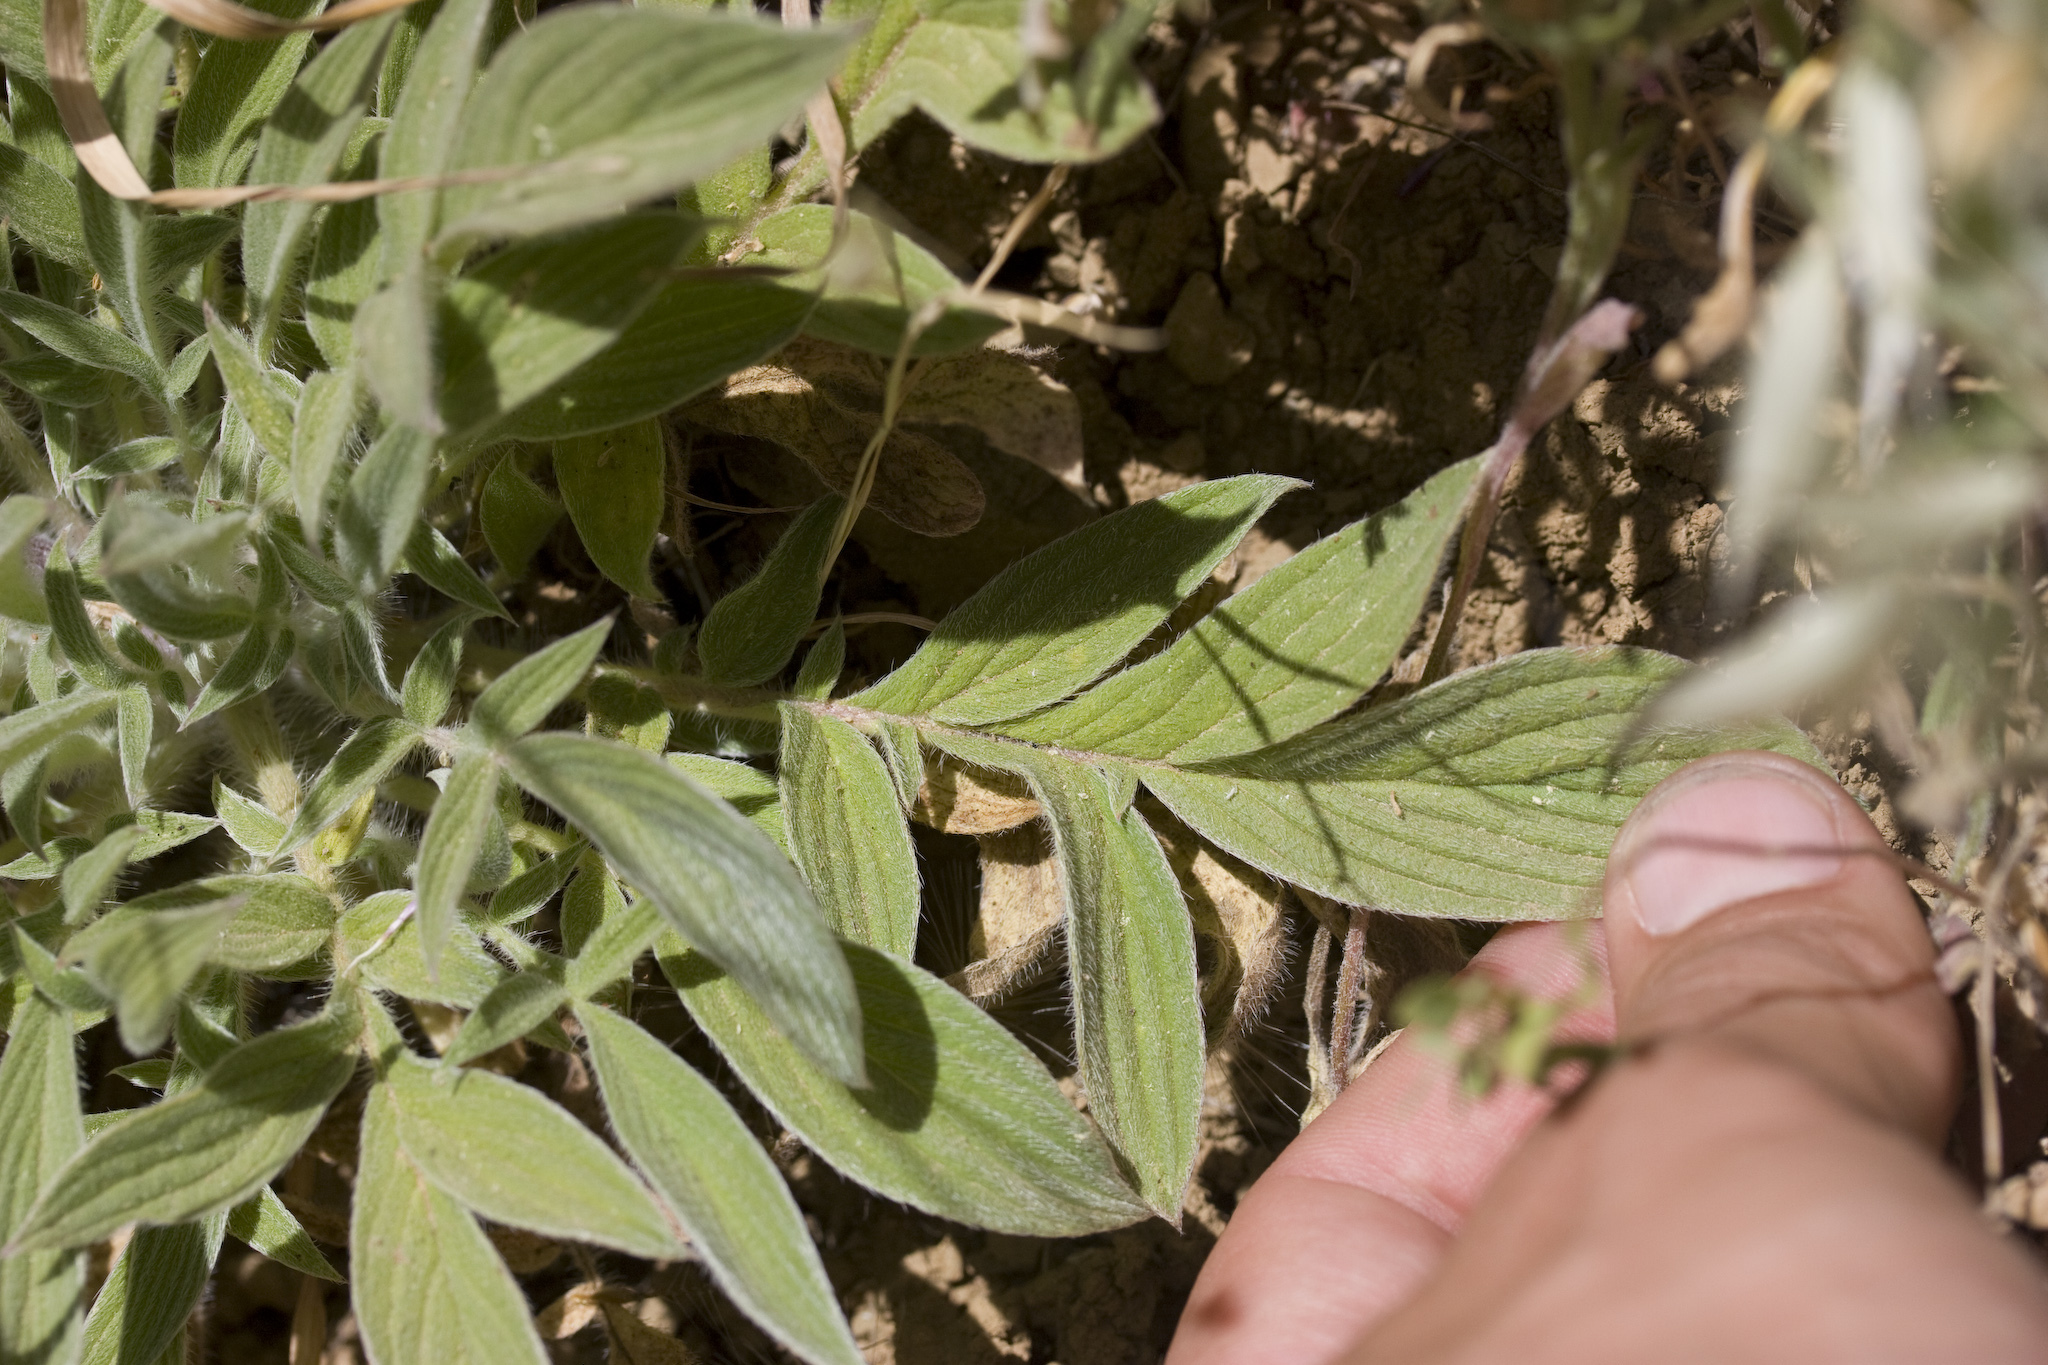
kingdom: Plantae
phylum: Tracheophyta
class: Magnoliopsida
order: Boraginales
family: Hydrophyllaceae
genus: Phacelia
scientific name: Phacelia imbricata
